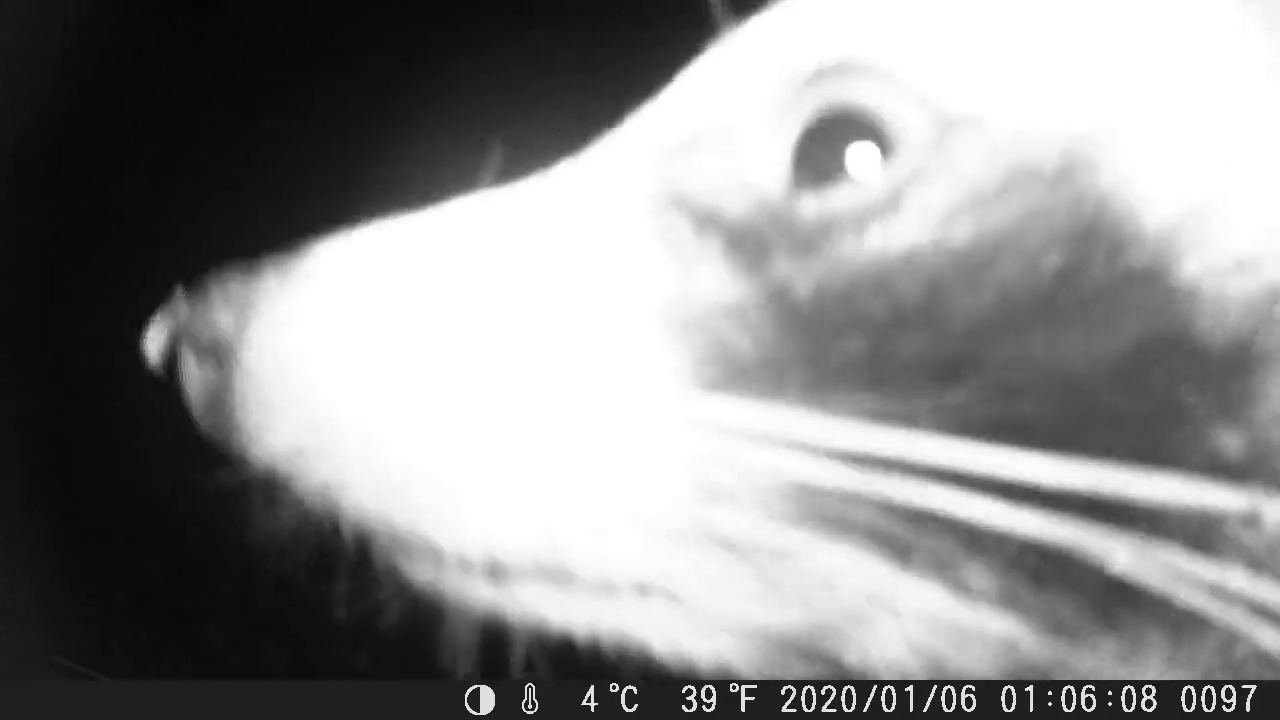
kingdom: Animalia
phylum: Chordata
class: Mammalia
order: Carnivora
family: Procyonidae
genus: Procyon
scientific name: Procyon lotor
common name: Raccoon
